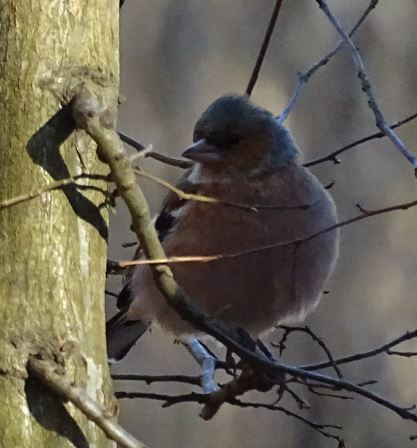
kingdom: Animalia
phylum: Chordata
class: Aves
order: Passeriformes
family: Fringillidae
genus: Fringilla
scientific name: Fringilla coelebs
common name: Common chaffinch
